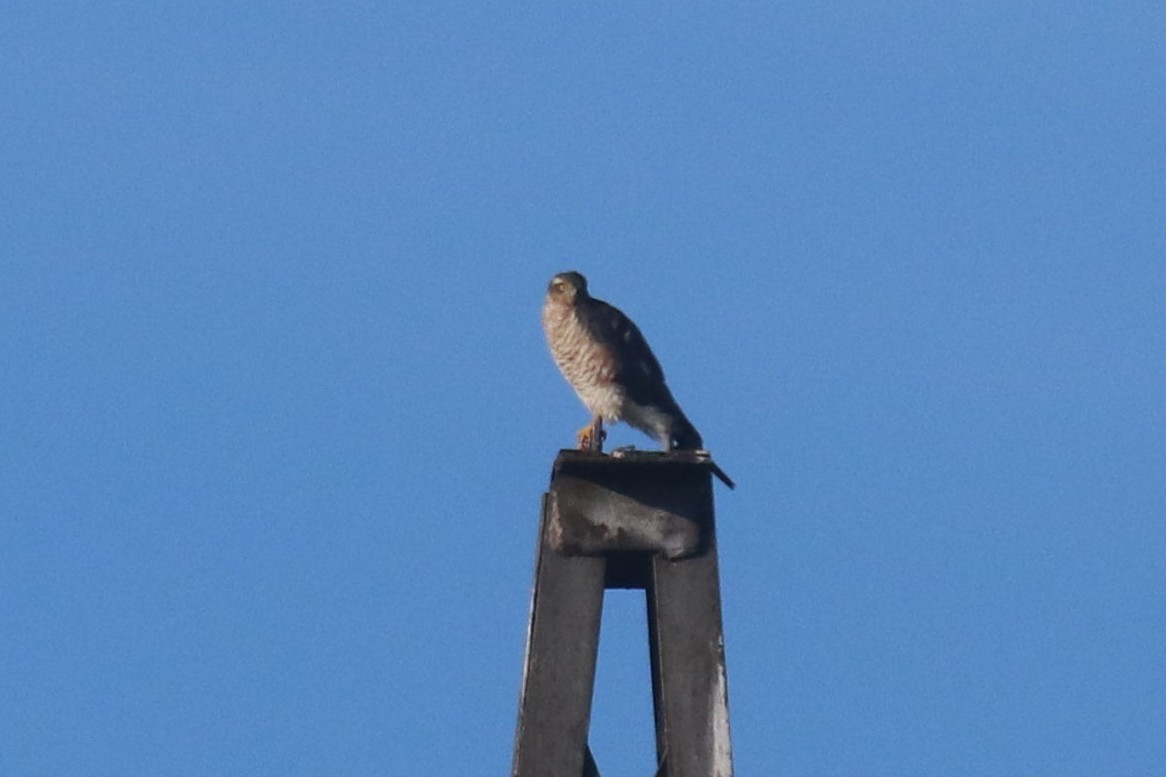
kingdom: Animalia
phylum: Chordata
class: Aves
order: Accipitriformes
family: Accipitridae
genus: Accipiter
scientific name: Accipiter nisus
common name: Eurasian sparrowhawk
